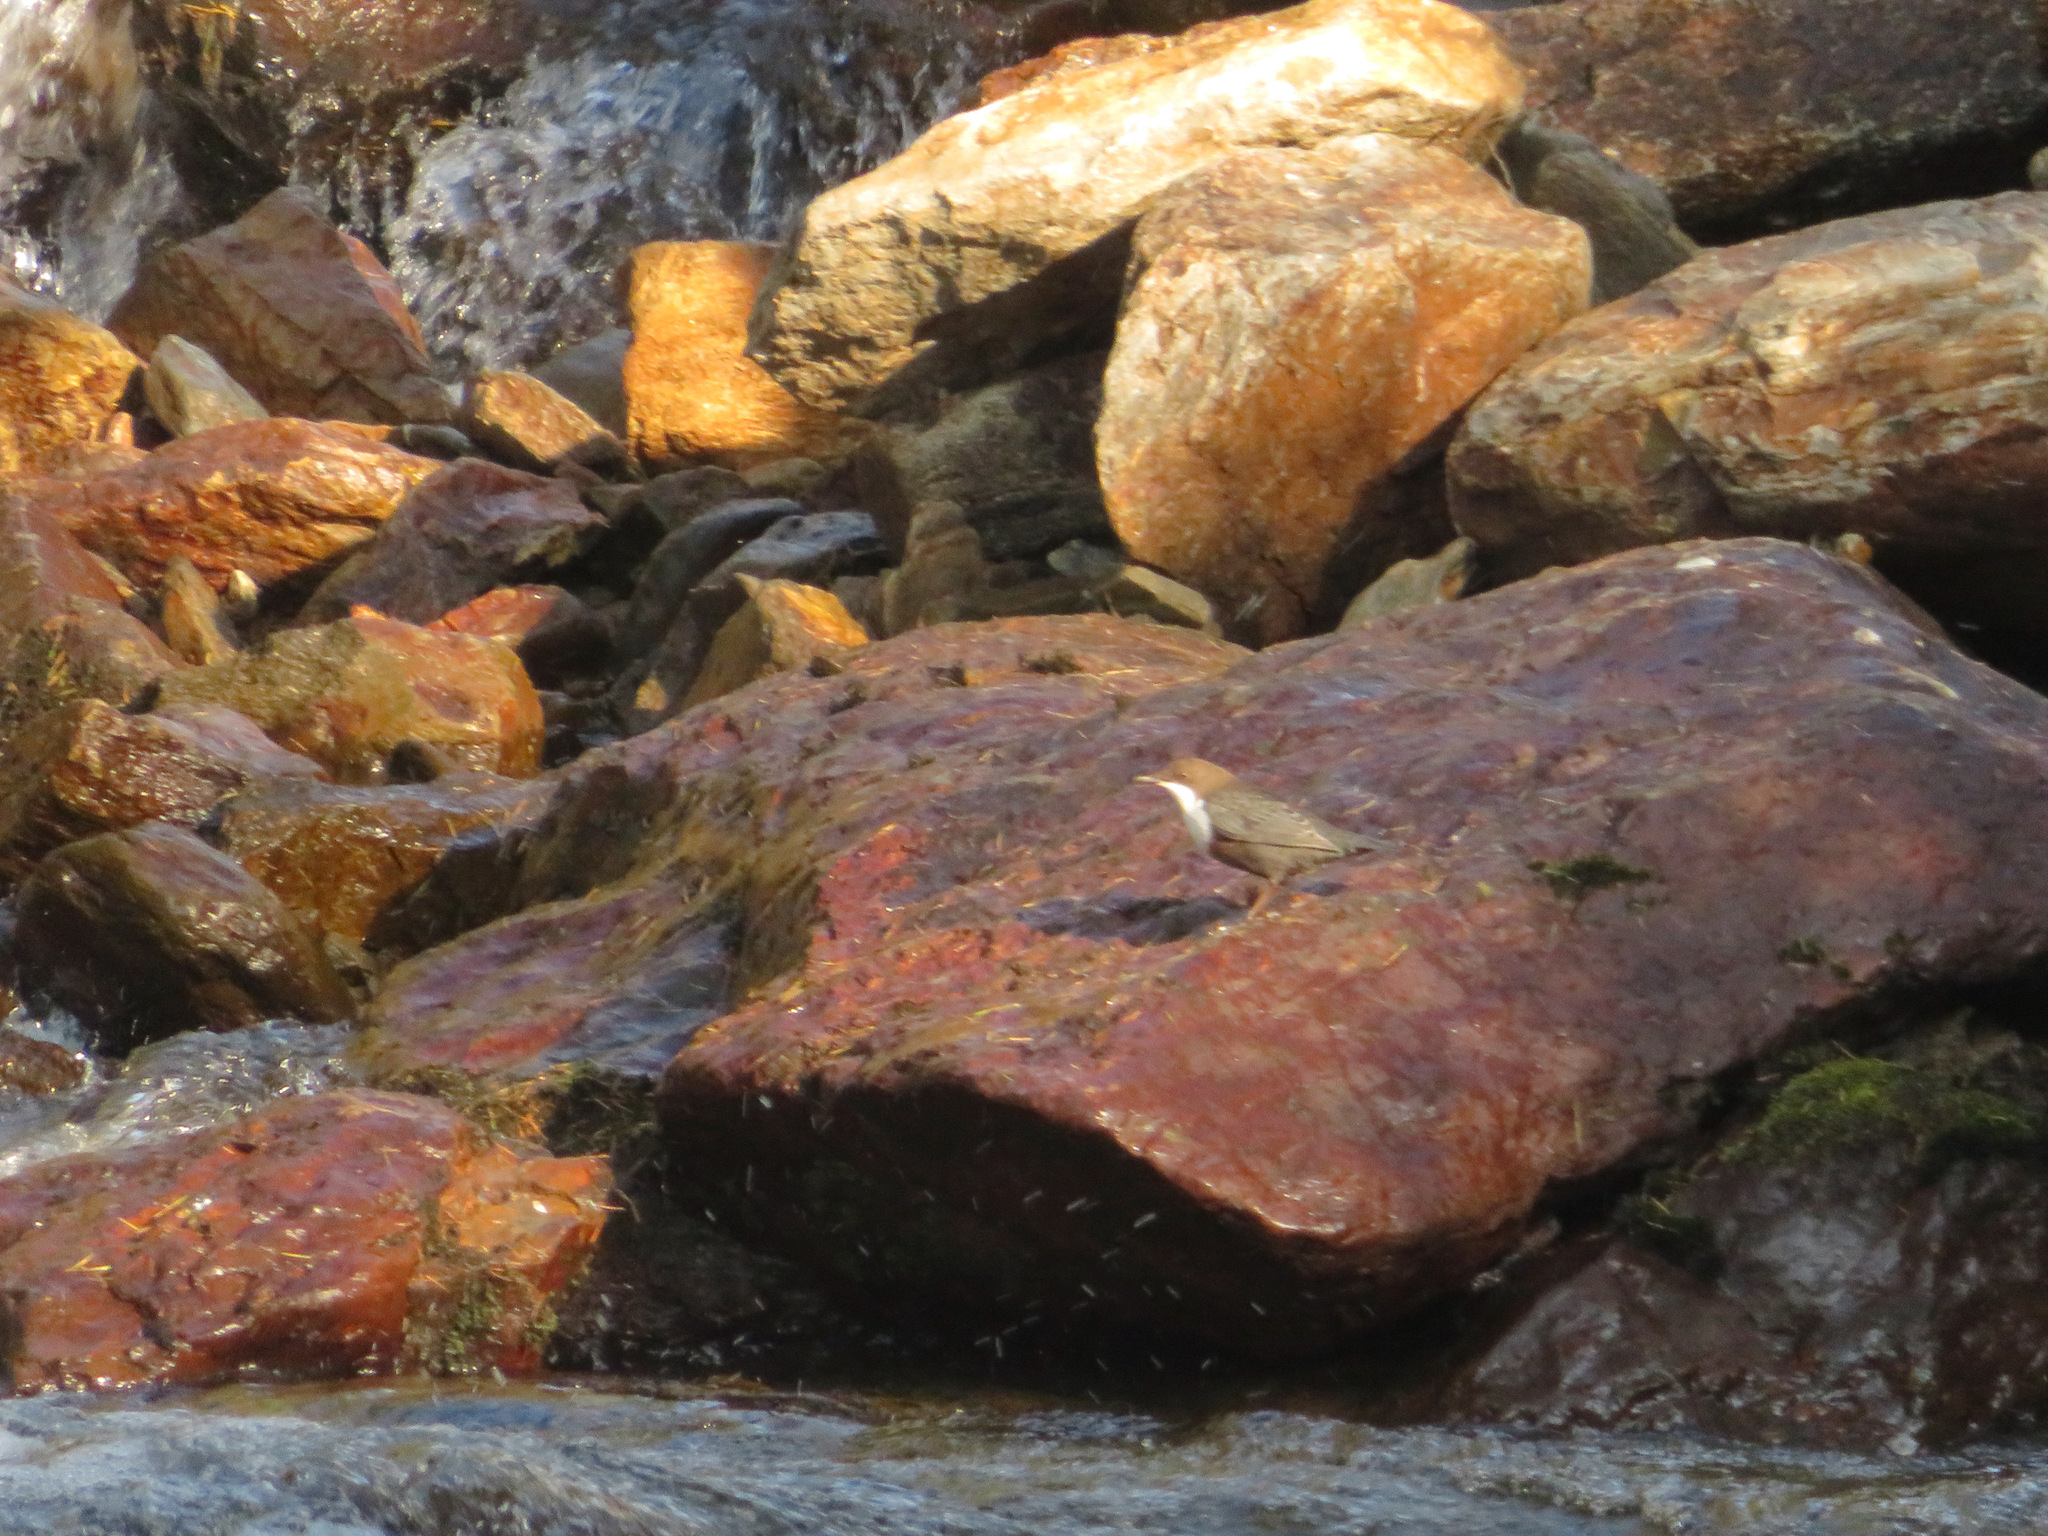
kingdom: Animalia
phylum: Chordata
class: Aves
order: Passeriformes
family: Cinclidae
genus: Cinclus
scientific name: Cinclus cinclus
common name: White-throated dipper
